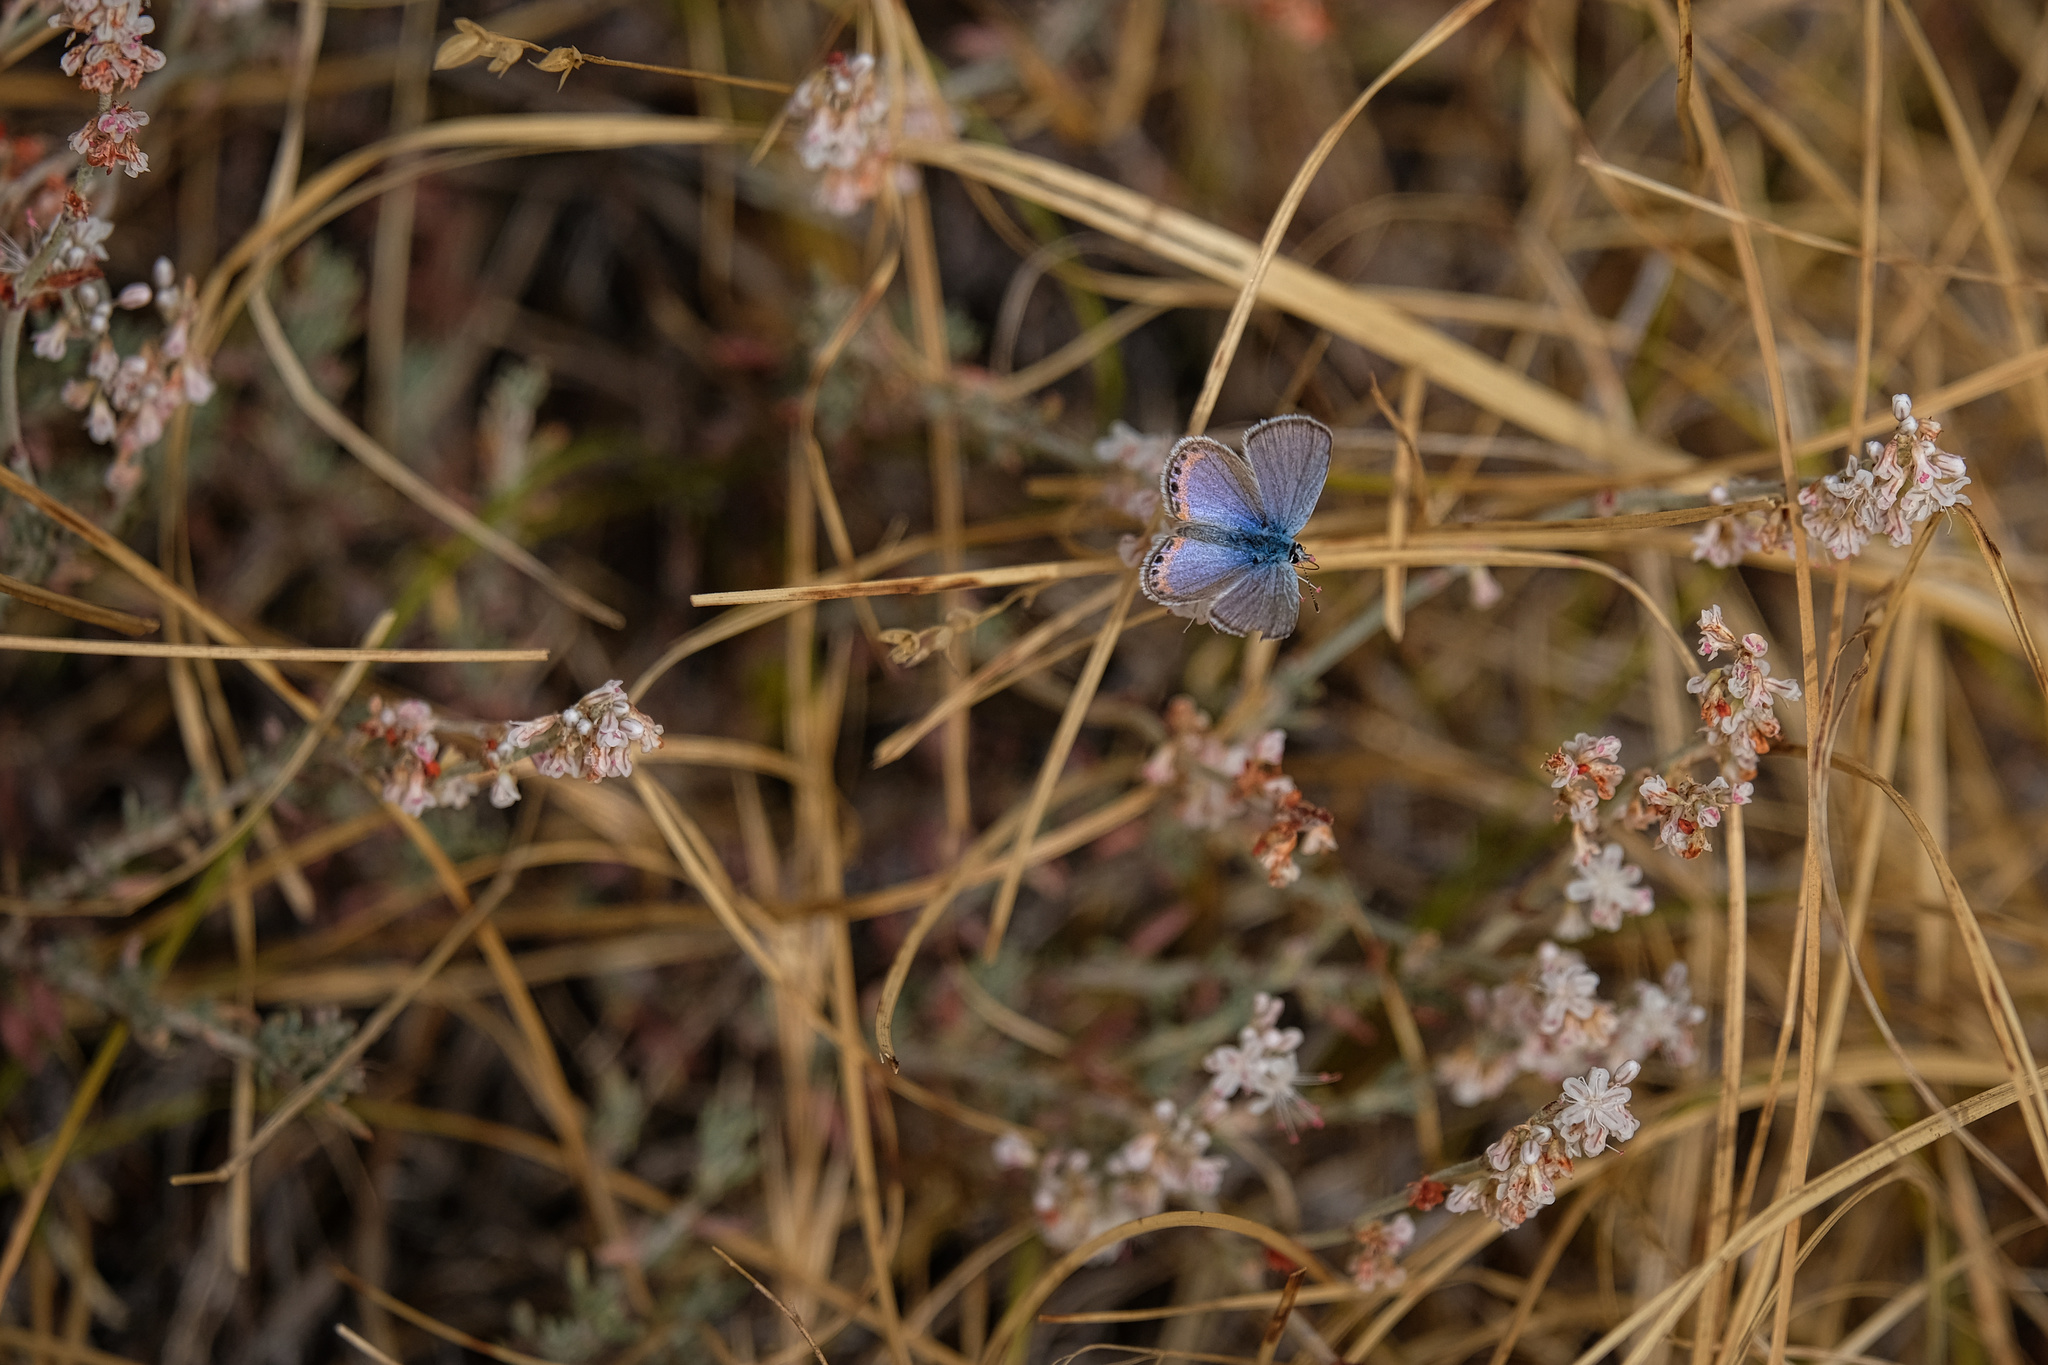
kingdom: Animalia
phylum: Arthropoda
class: Insecta
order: Lepidoptera
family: Lycaenidae
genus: Icaricia
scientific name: Icaricia acmon
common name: Acmon blue
